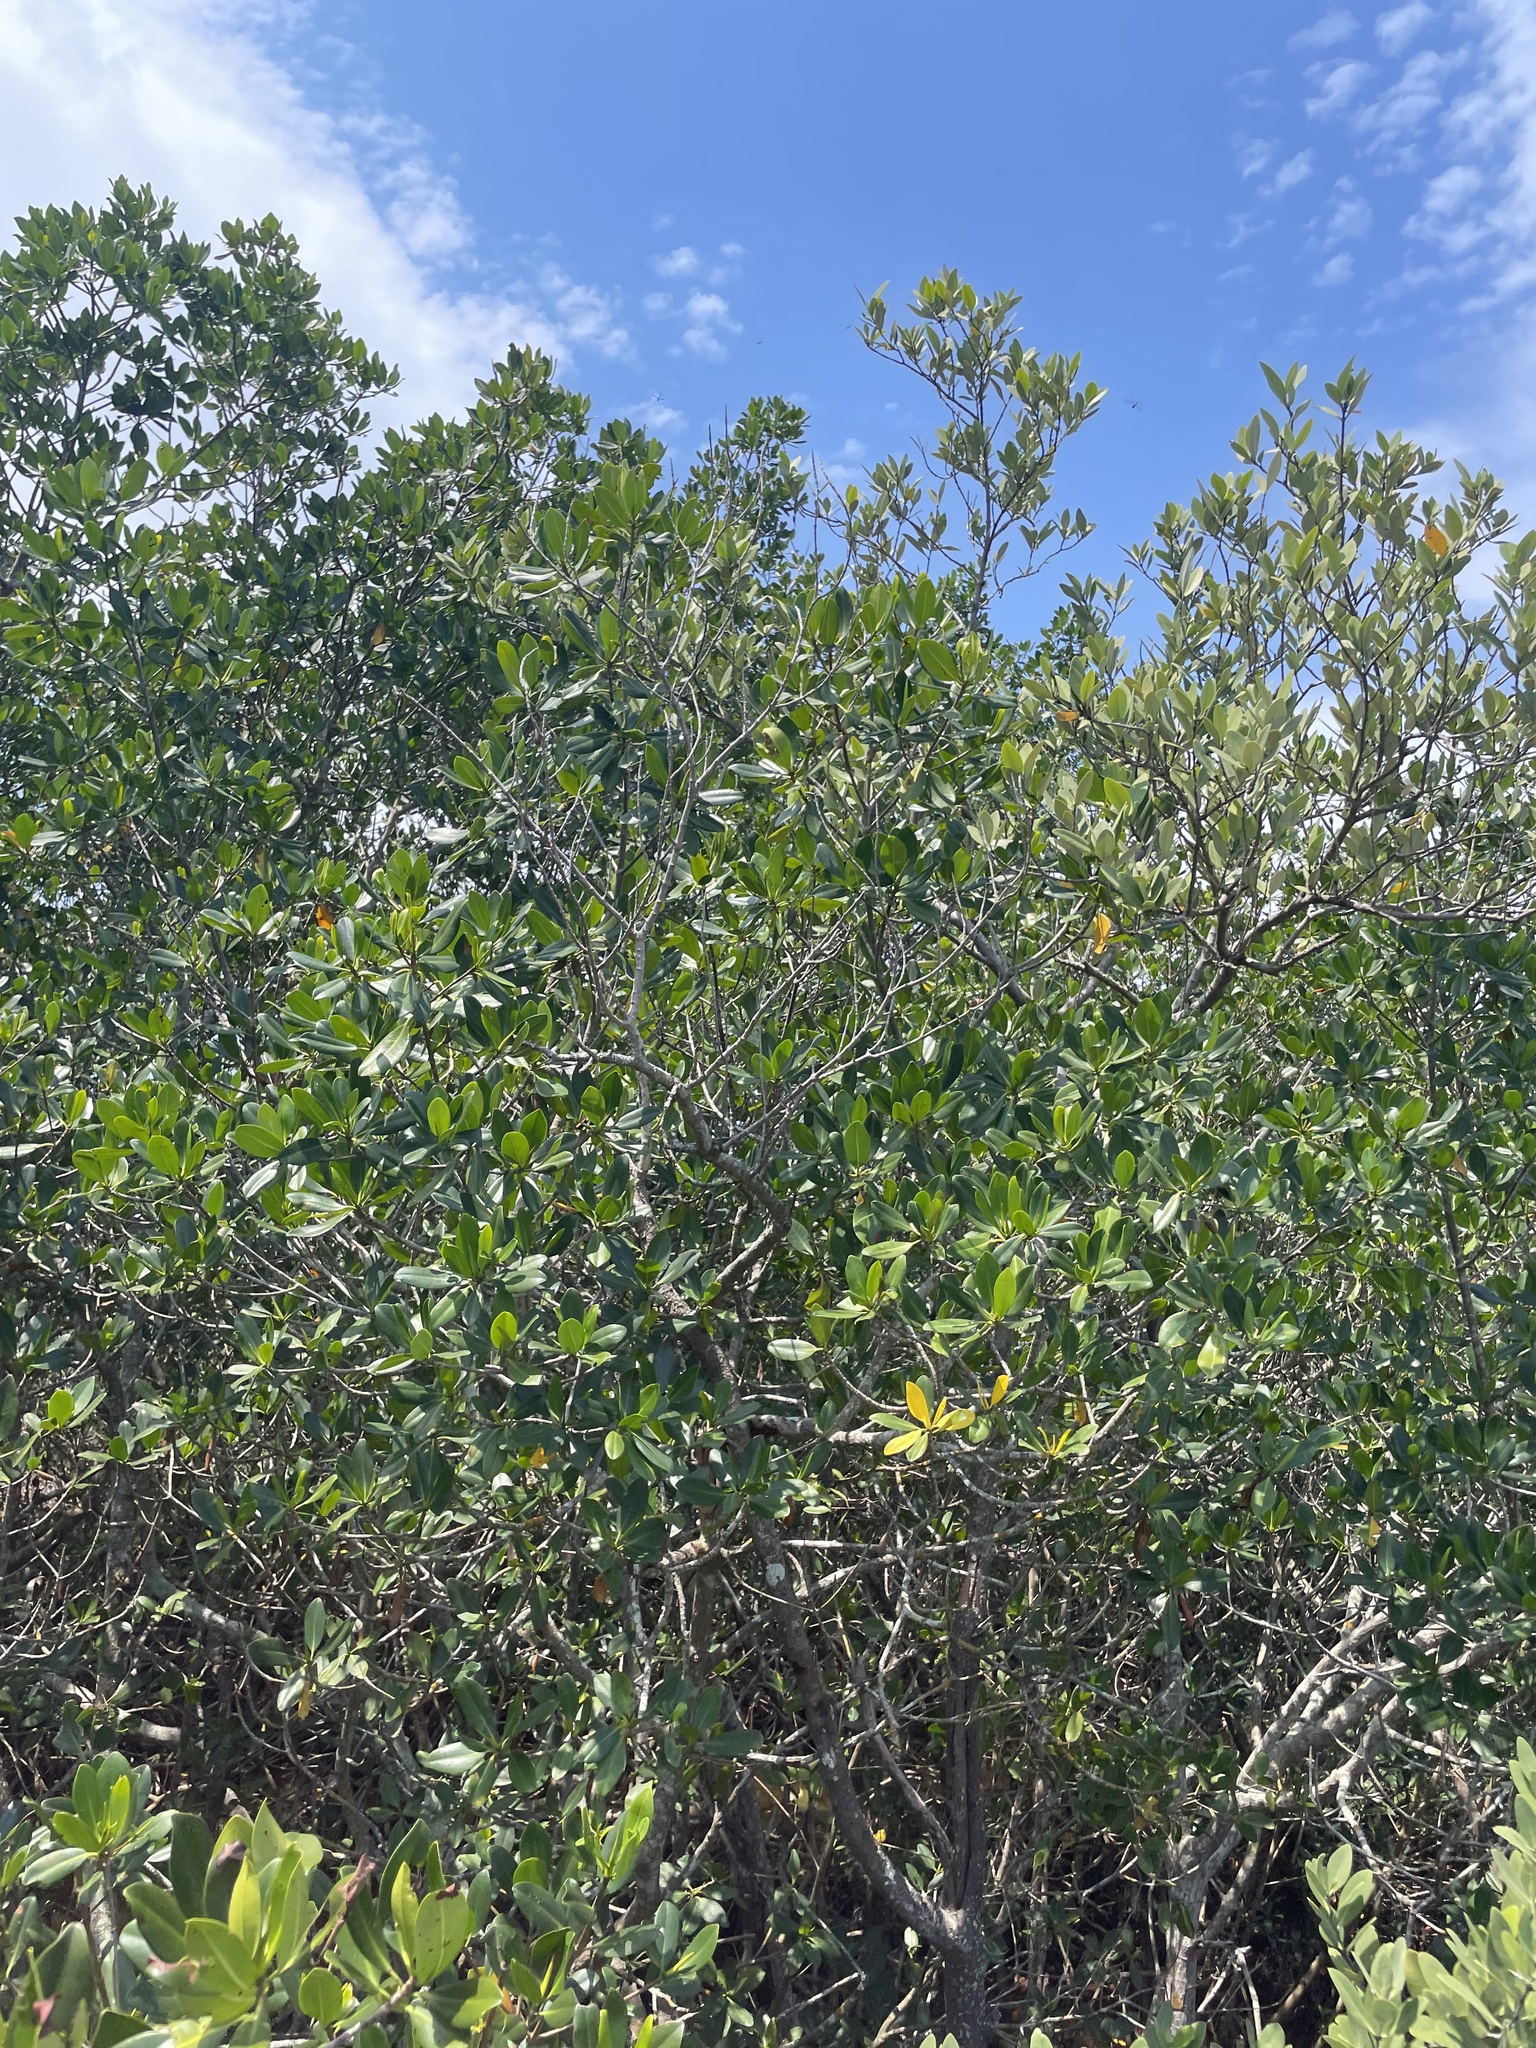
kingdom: Plantae
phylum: Tracheophyta
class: Magnoliopsida
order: Malpighiales
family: Rhizophoraceae
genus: Rhizophora
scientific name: Rhizophora mangle
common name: Red mangrove
